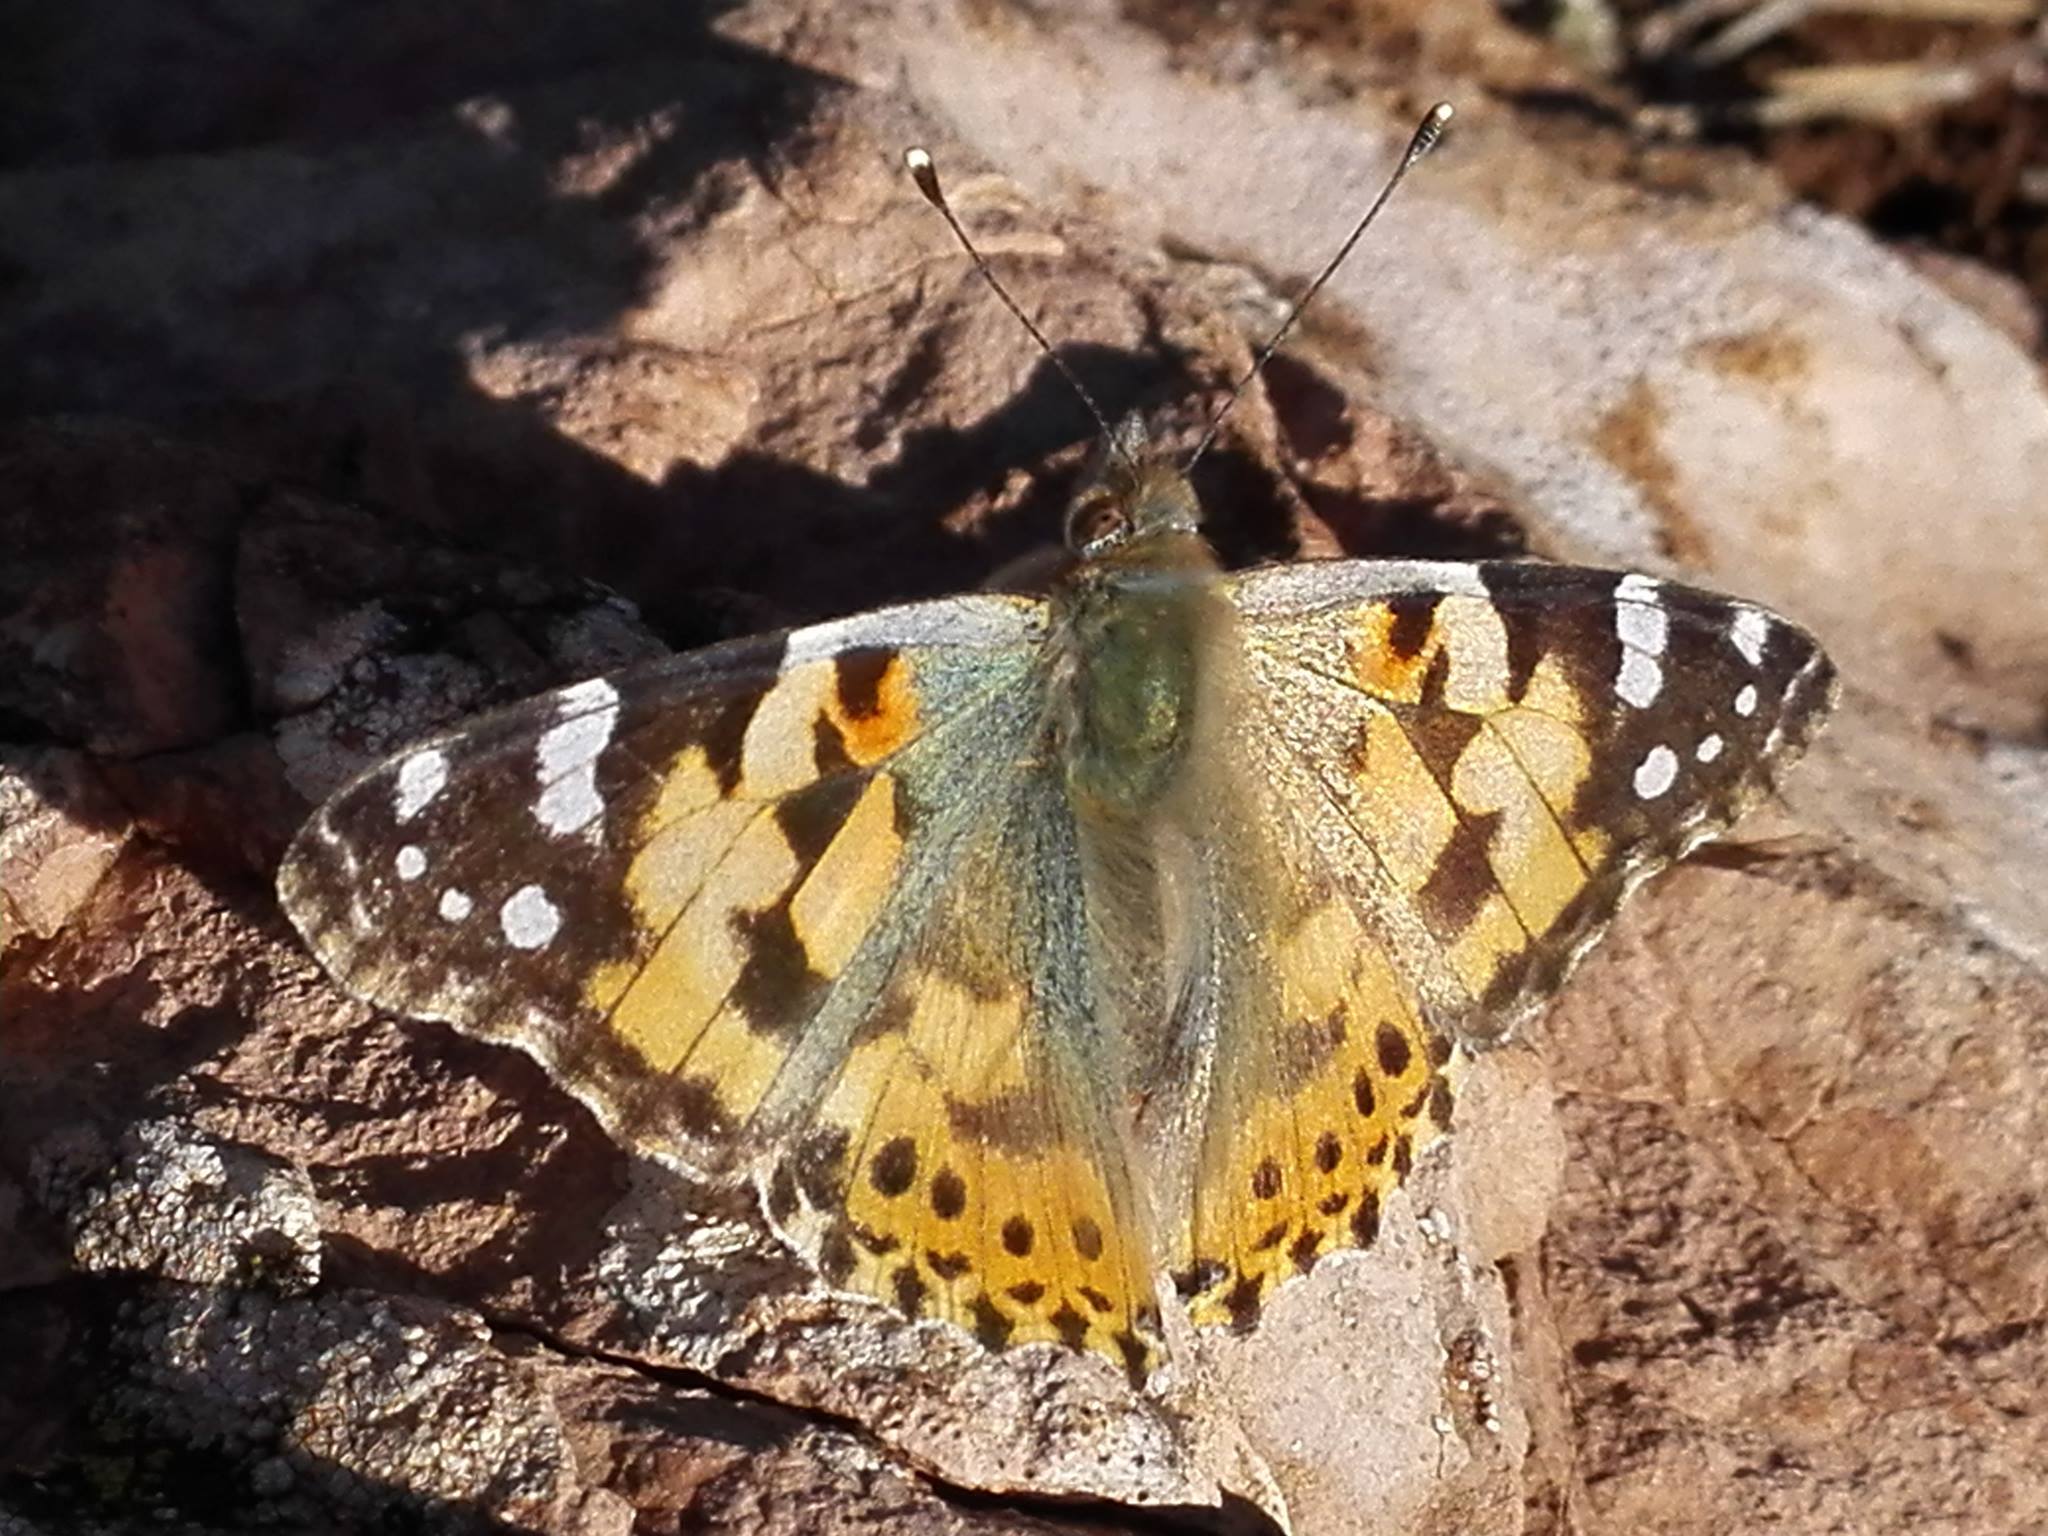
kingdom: Animalia
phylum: Arthropoda
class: Insecta
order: Lepidoptera
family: Nymphalidae
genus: Vanessa
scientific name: Vanessa cardui
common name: Painted lady
